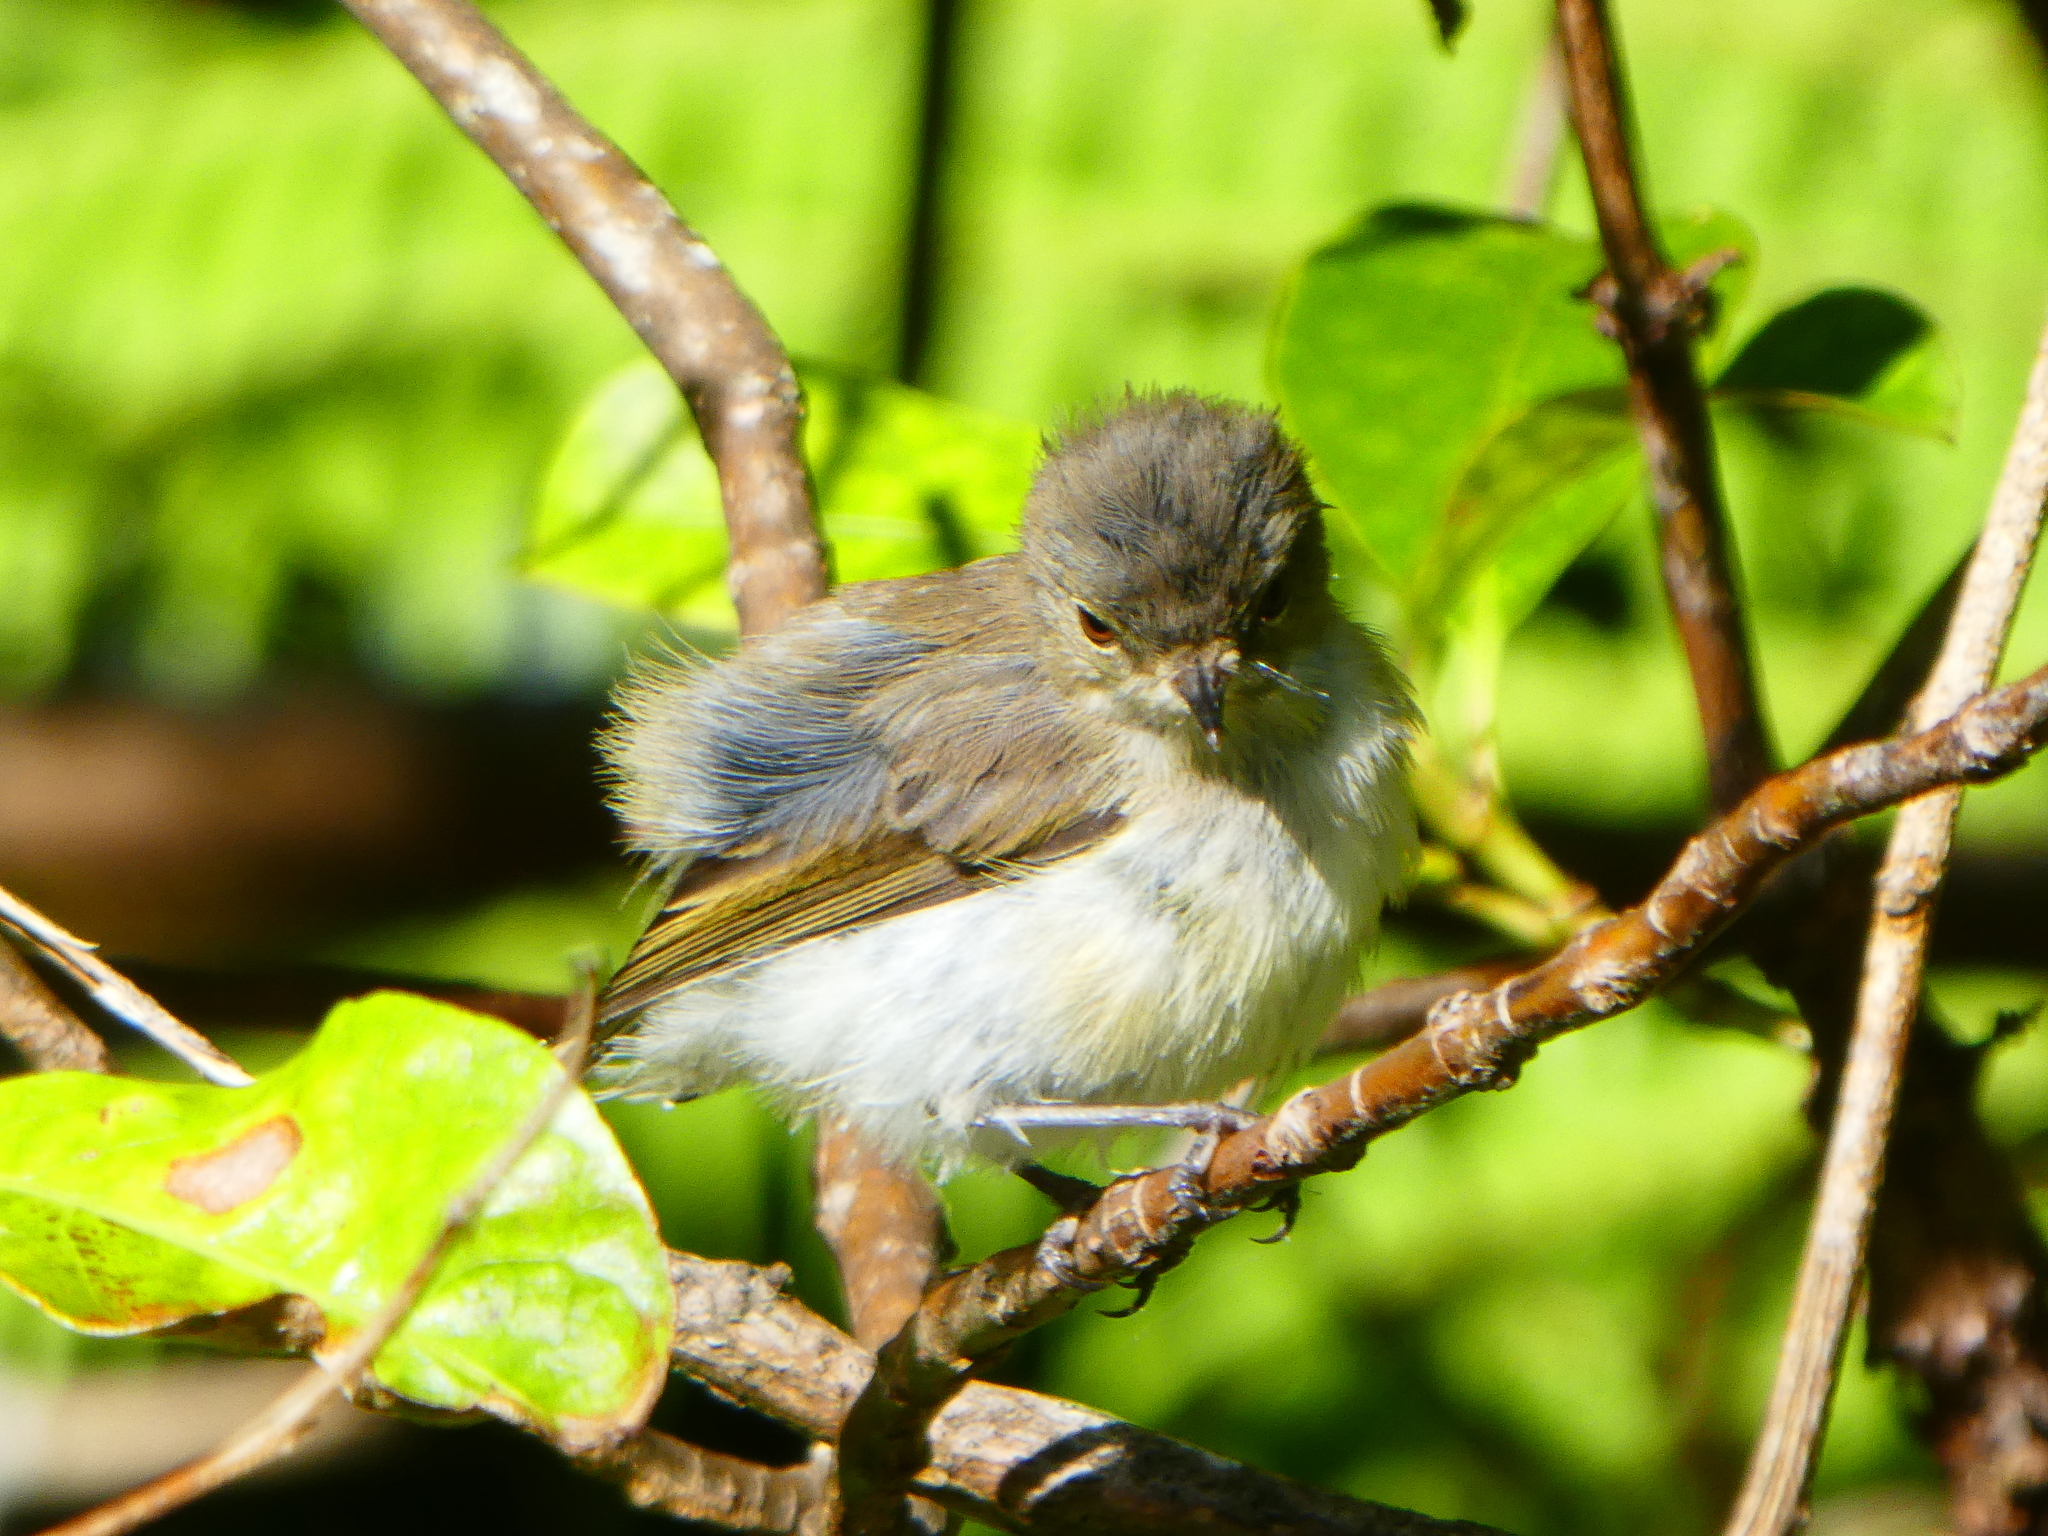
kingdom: Animalia
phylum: Chordata
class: Aves
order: Passeriformes
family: Acanthizidae
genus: Gerygone
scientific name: Gerygone igata
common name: Grey gerygone
